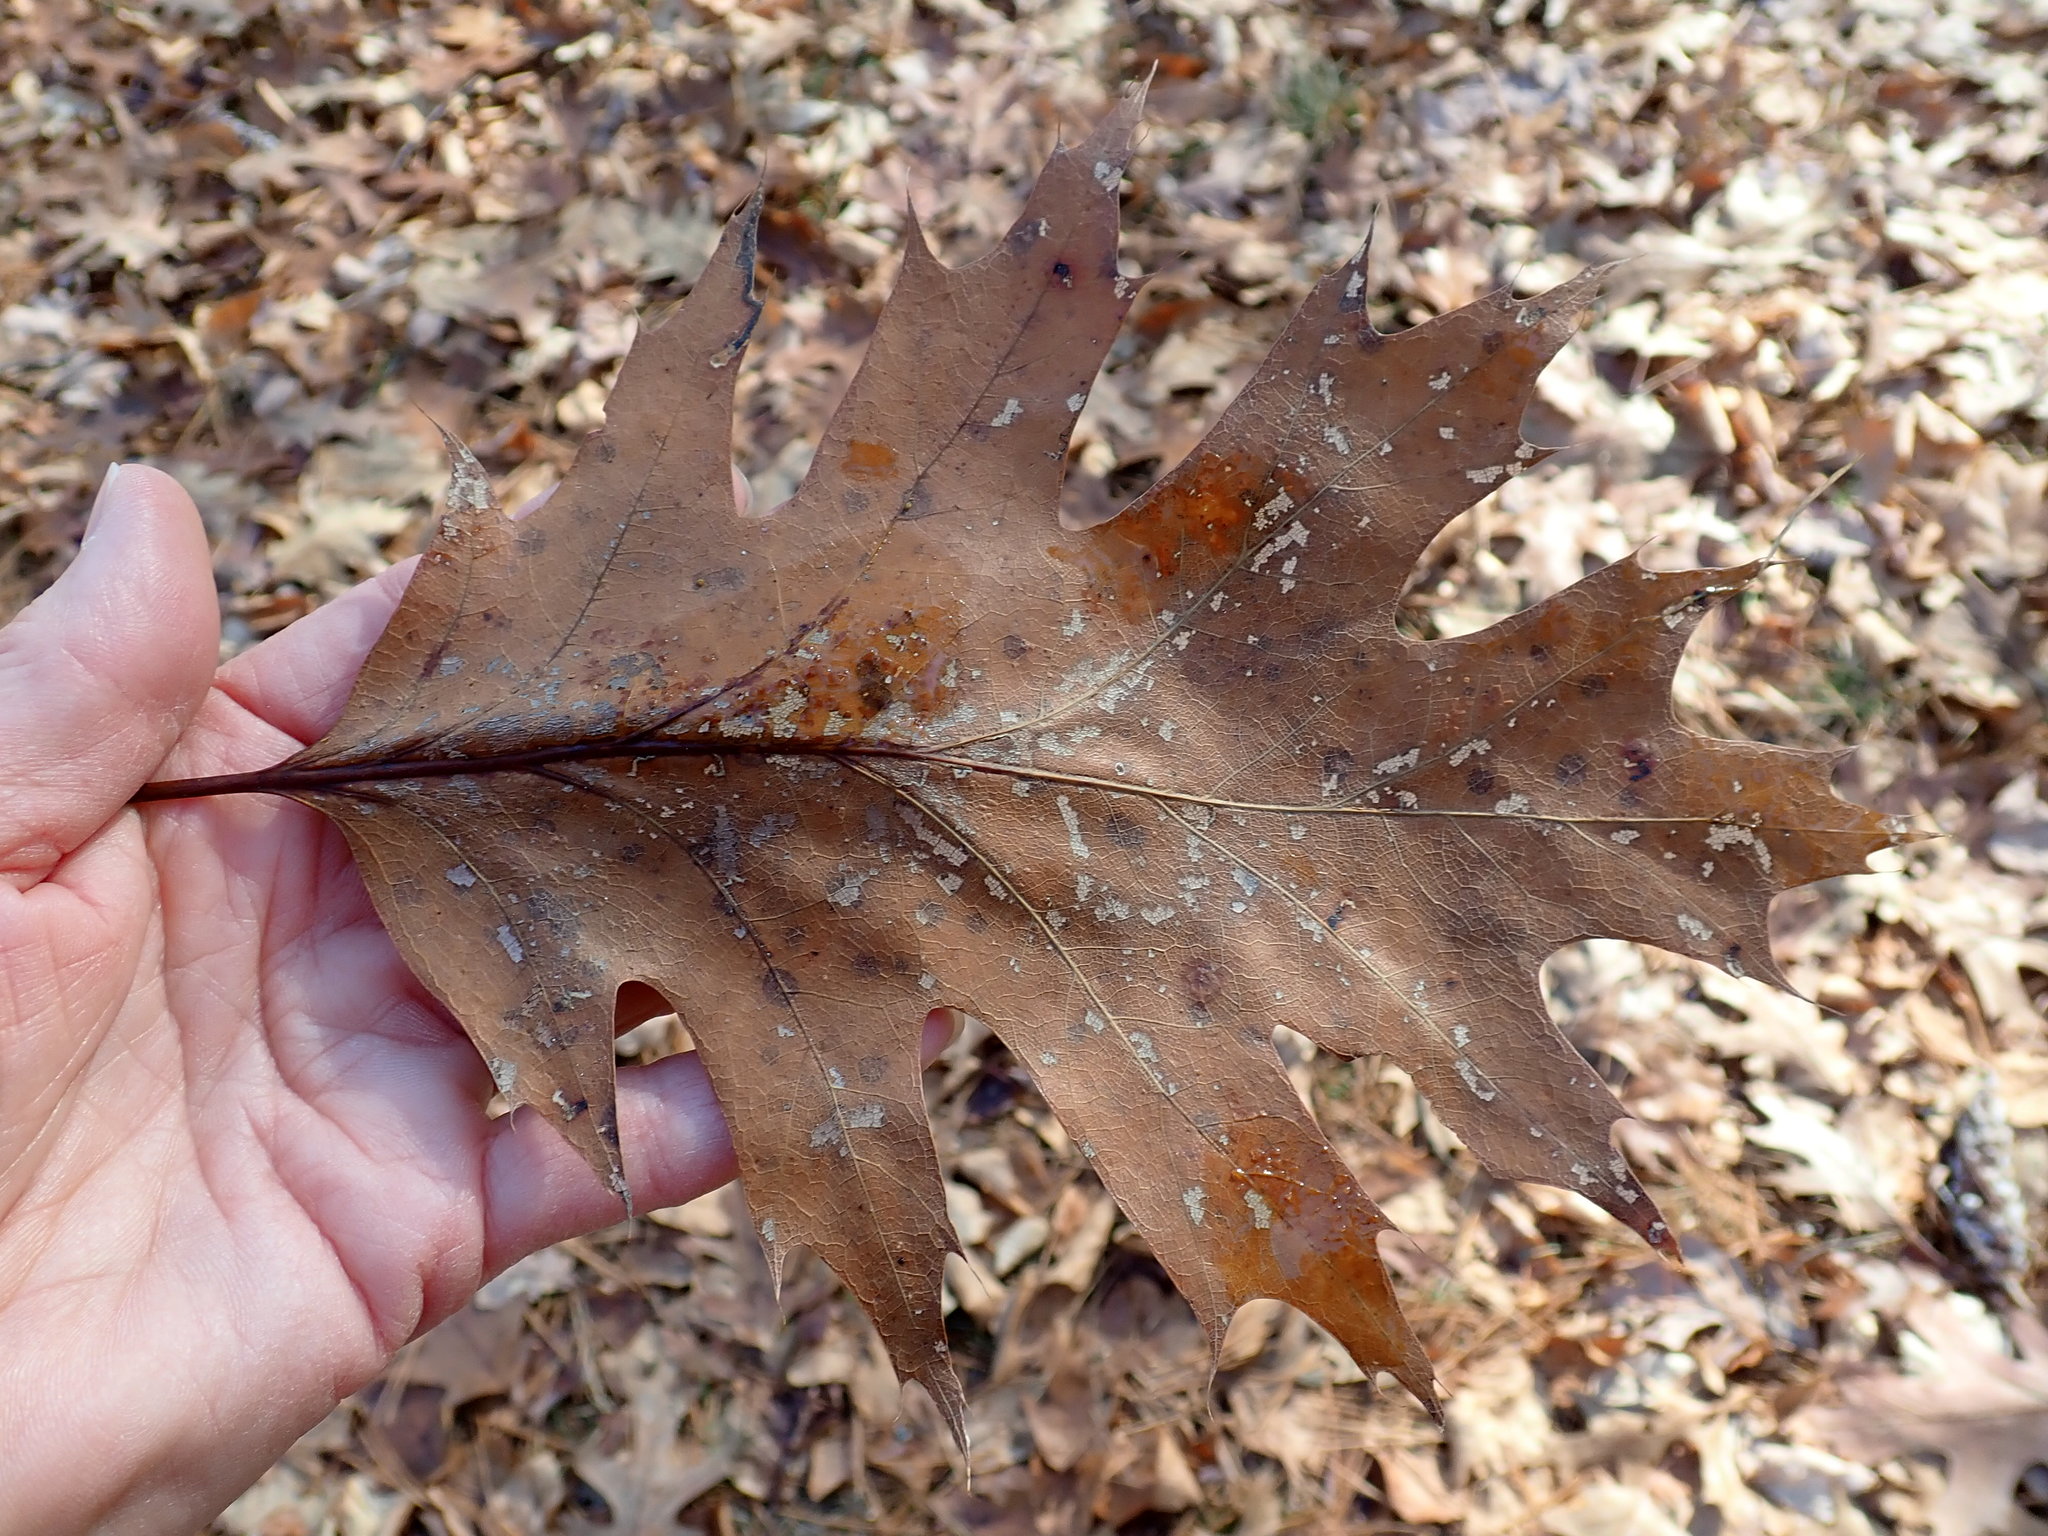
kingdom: Plantae
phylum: Tracheophyta
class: Magnoliopsida
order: Fagales
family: Fagaceae
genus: Quercus
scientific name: Quercus rubra
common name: Red oak
